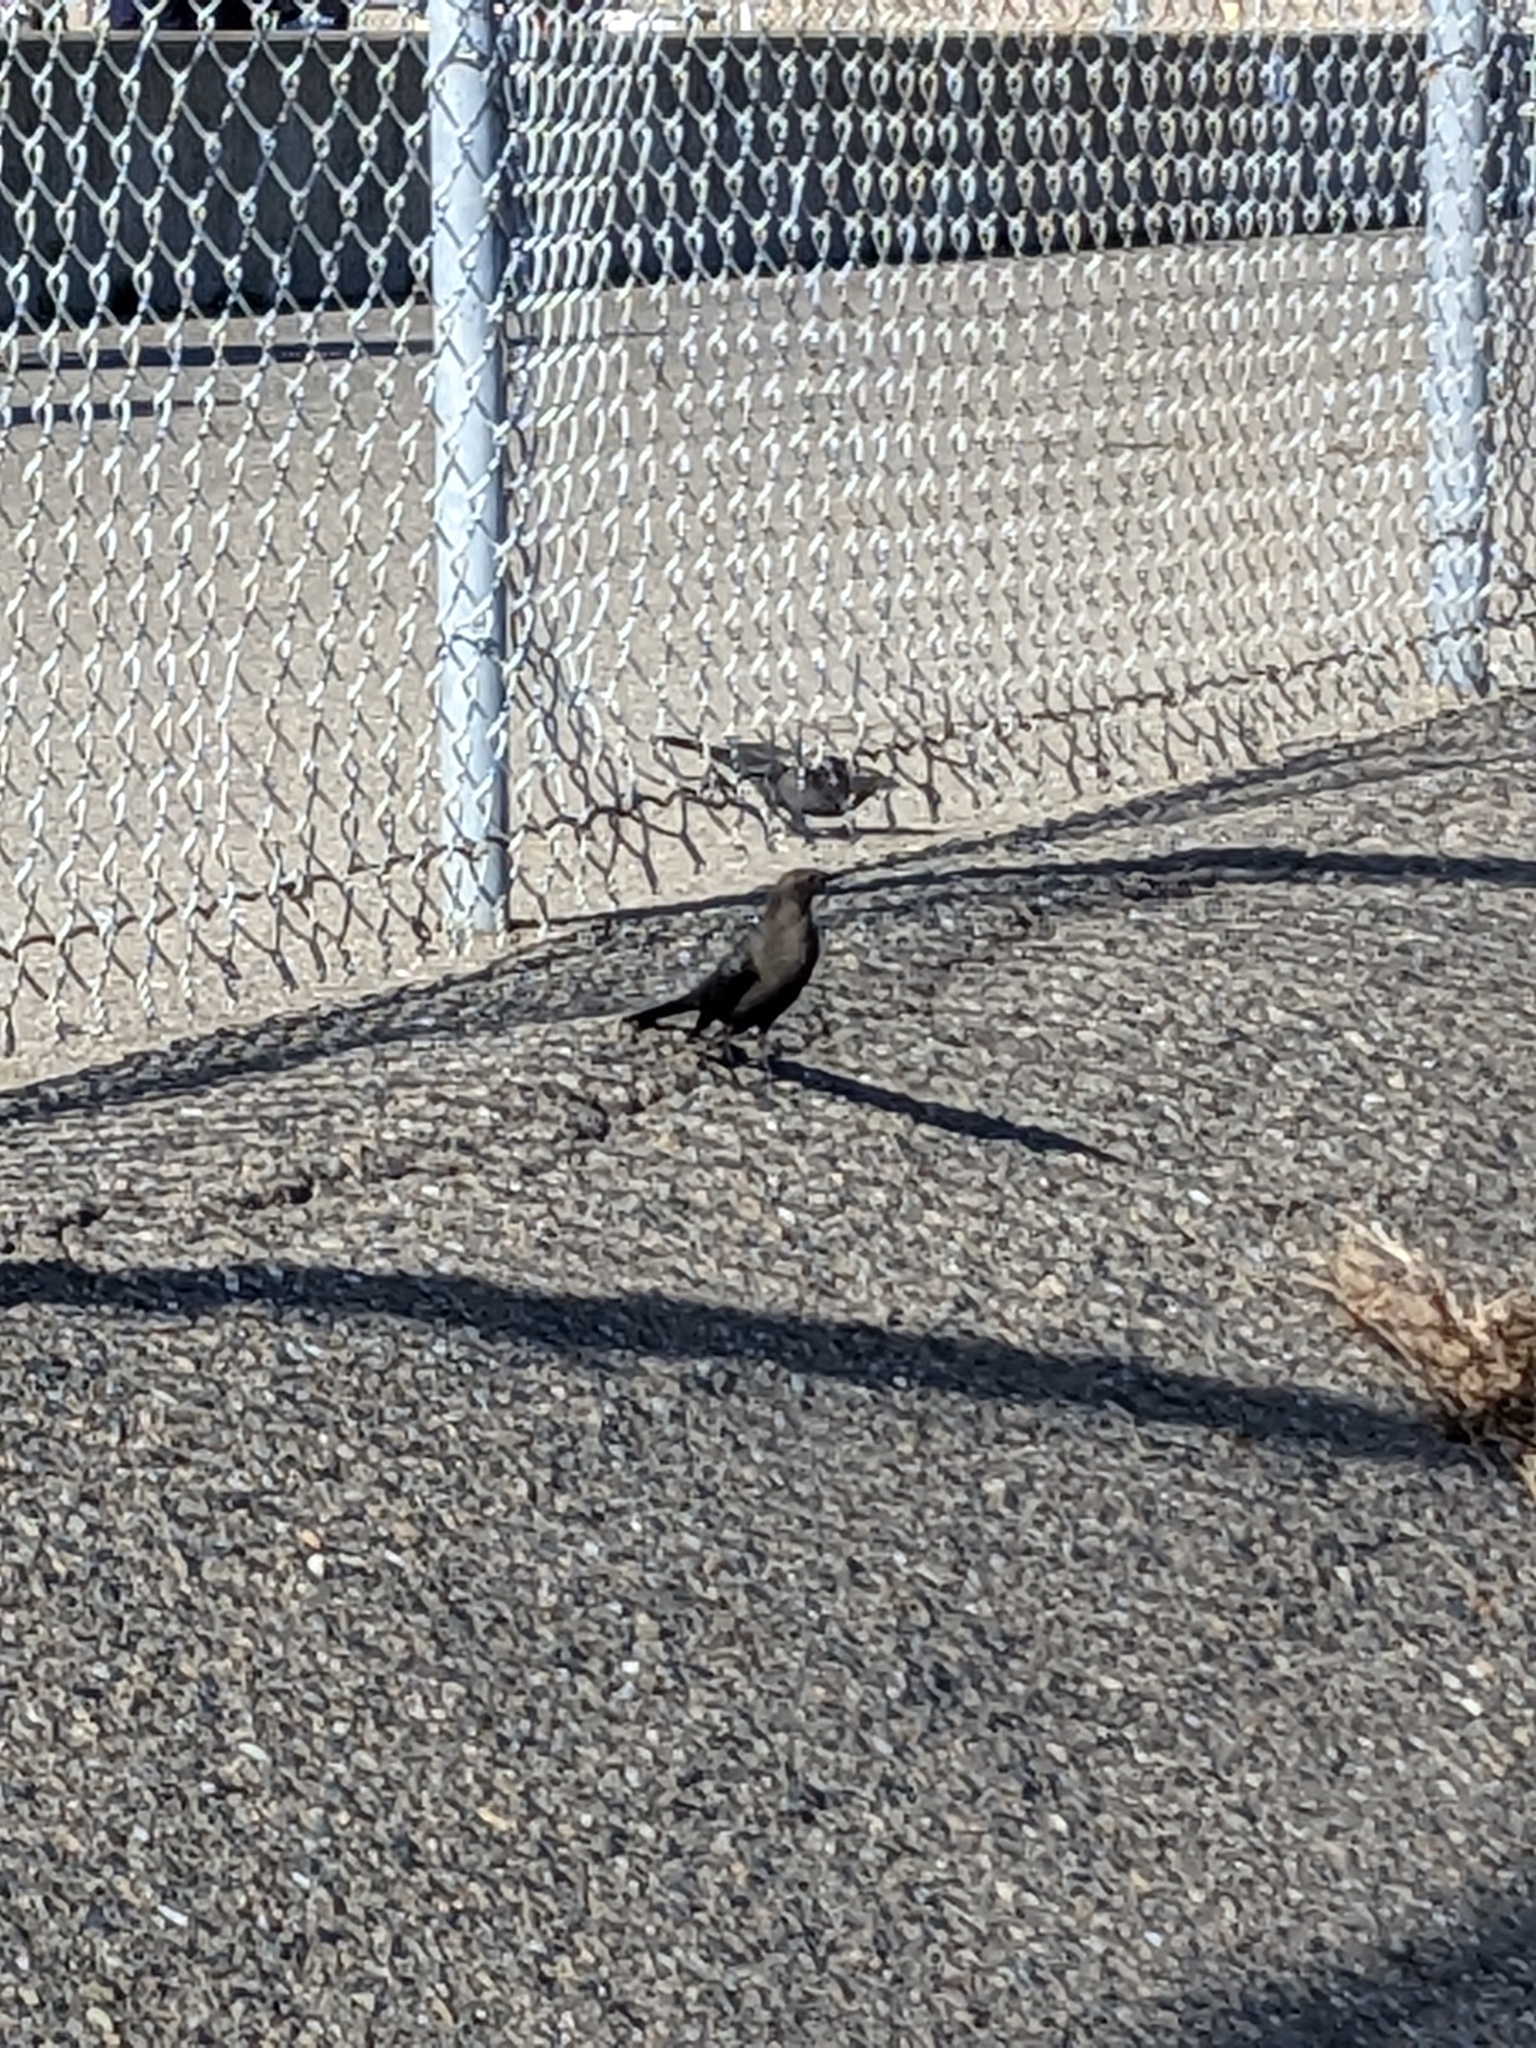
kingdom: Animalia
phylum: Chordata
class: Aves
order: Passeriformes
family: Icteridae
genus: Euphagus
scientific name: Euphagus cyanocephalus
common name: Brewer's blackbird
